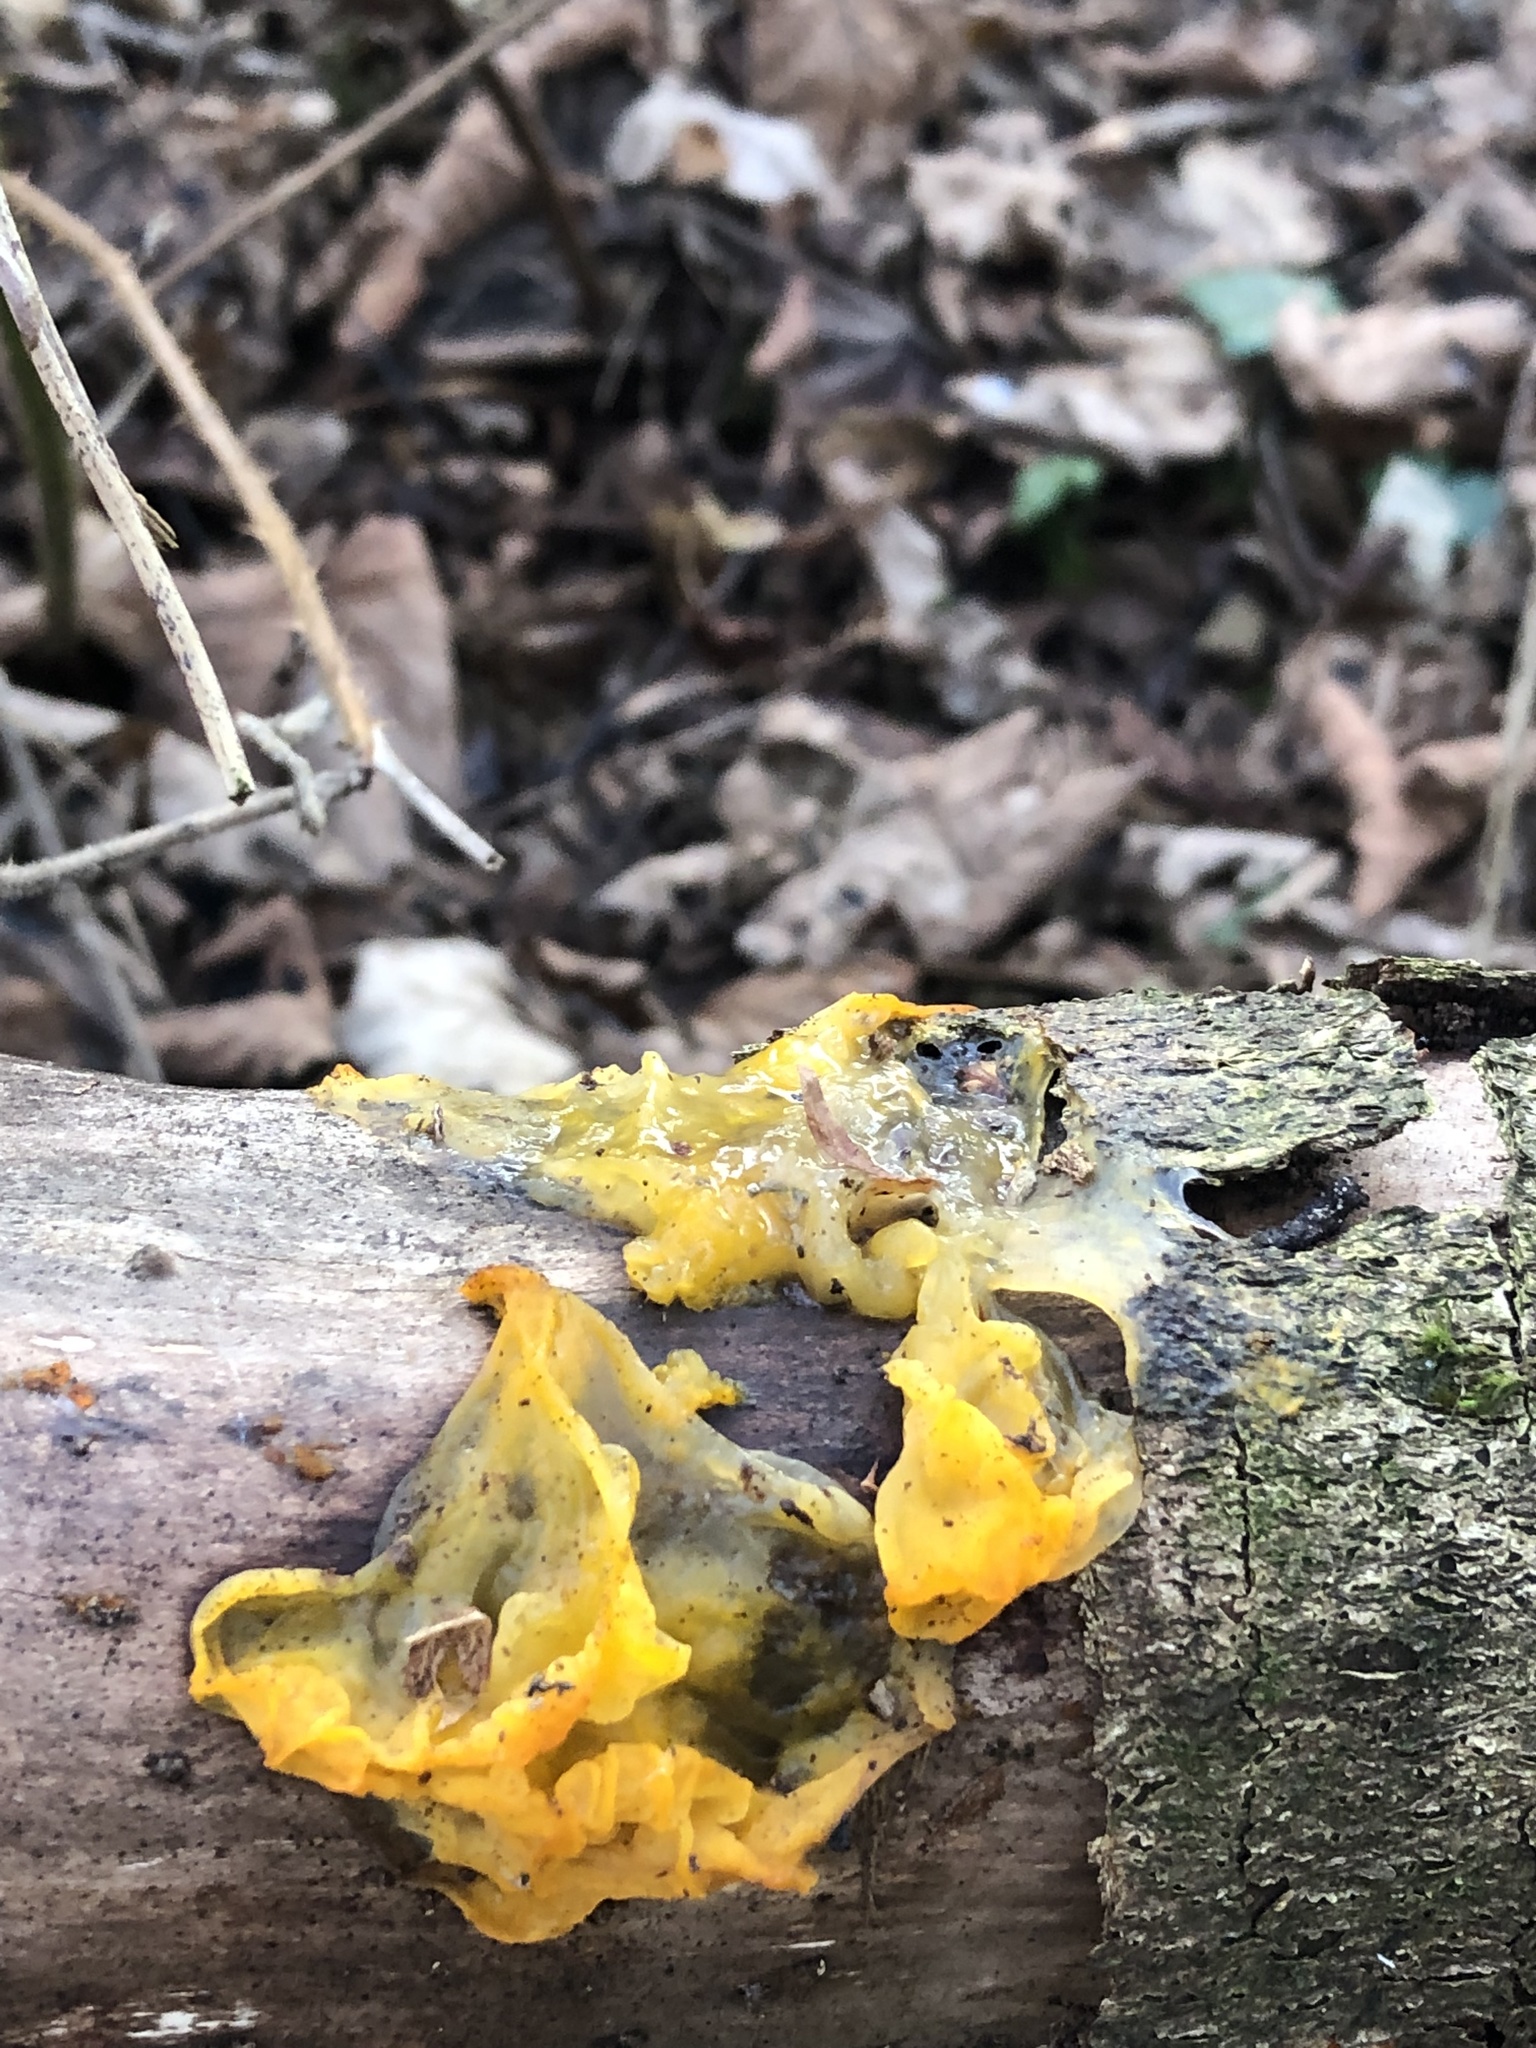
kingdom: Fungi
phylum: Basidiomycota
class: Tremellomycetes
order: Tremellales
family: Tremellaceae
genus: Tremella
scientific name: Tremella mesenterica
